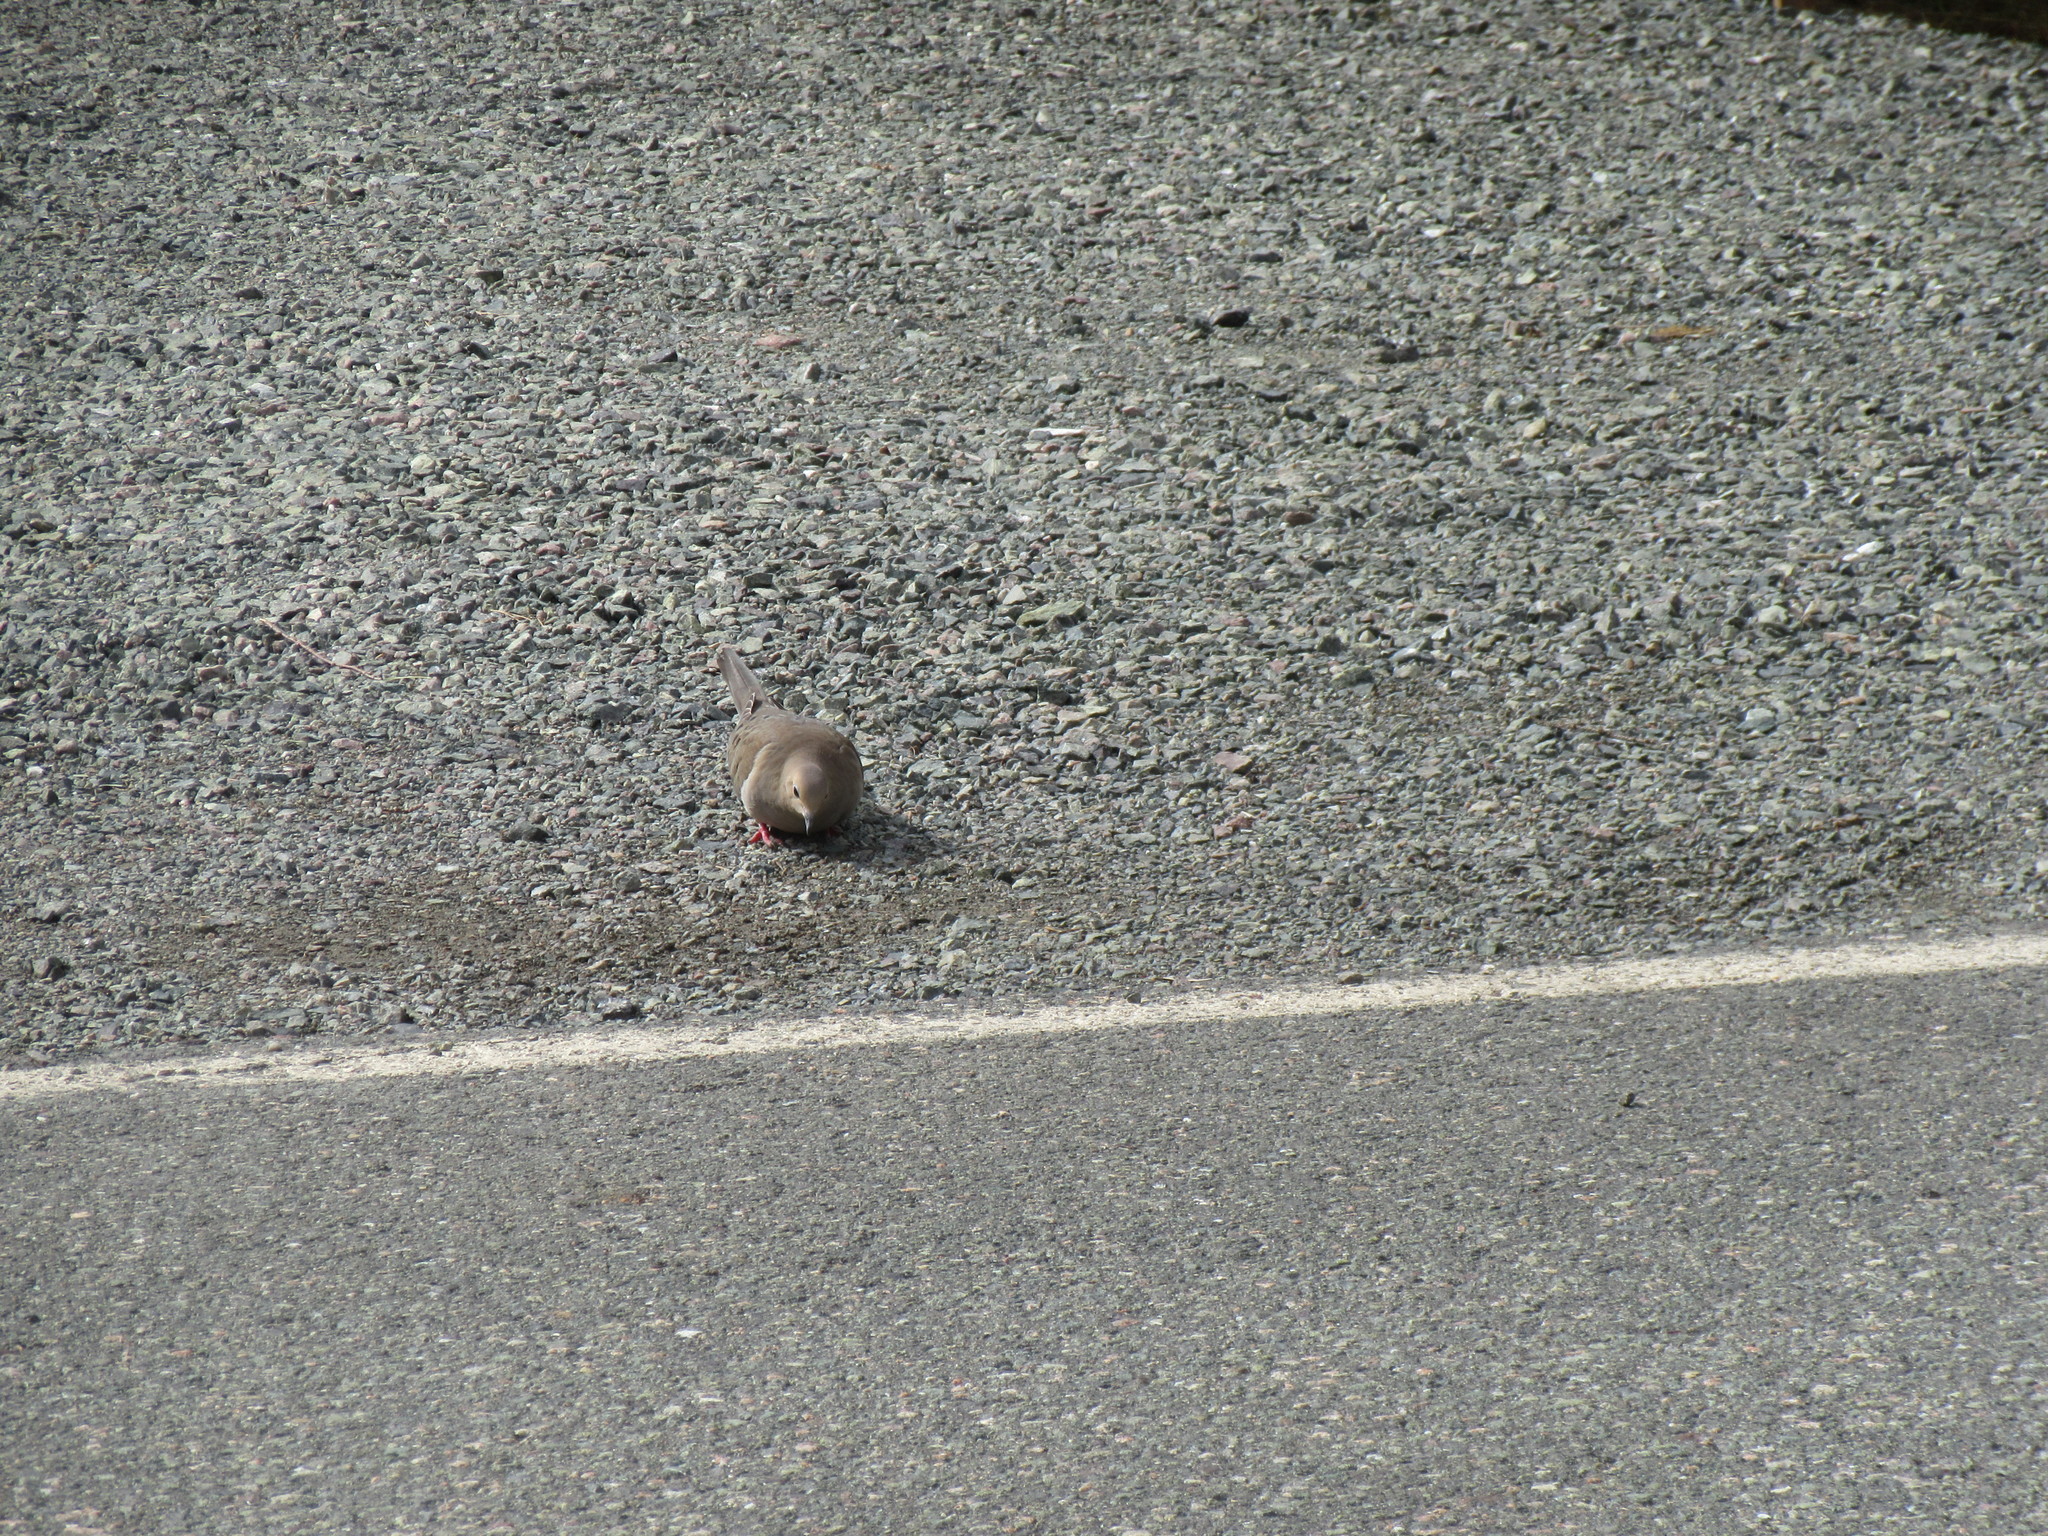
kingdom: Animalia
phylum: Chordata
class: Aves
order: Columbiformes
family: Columbidae
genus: Zenaida
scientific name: Zenaida macroura
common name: Mourning dove
